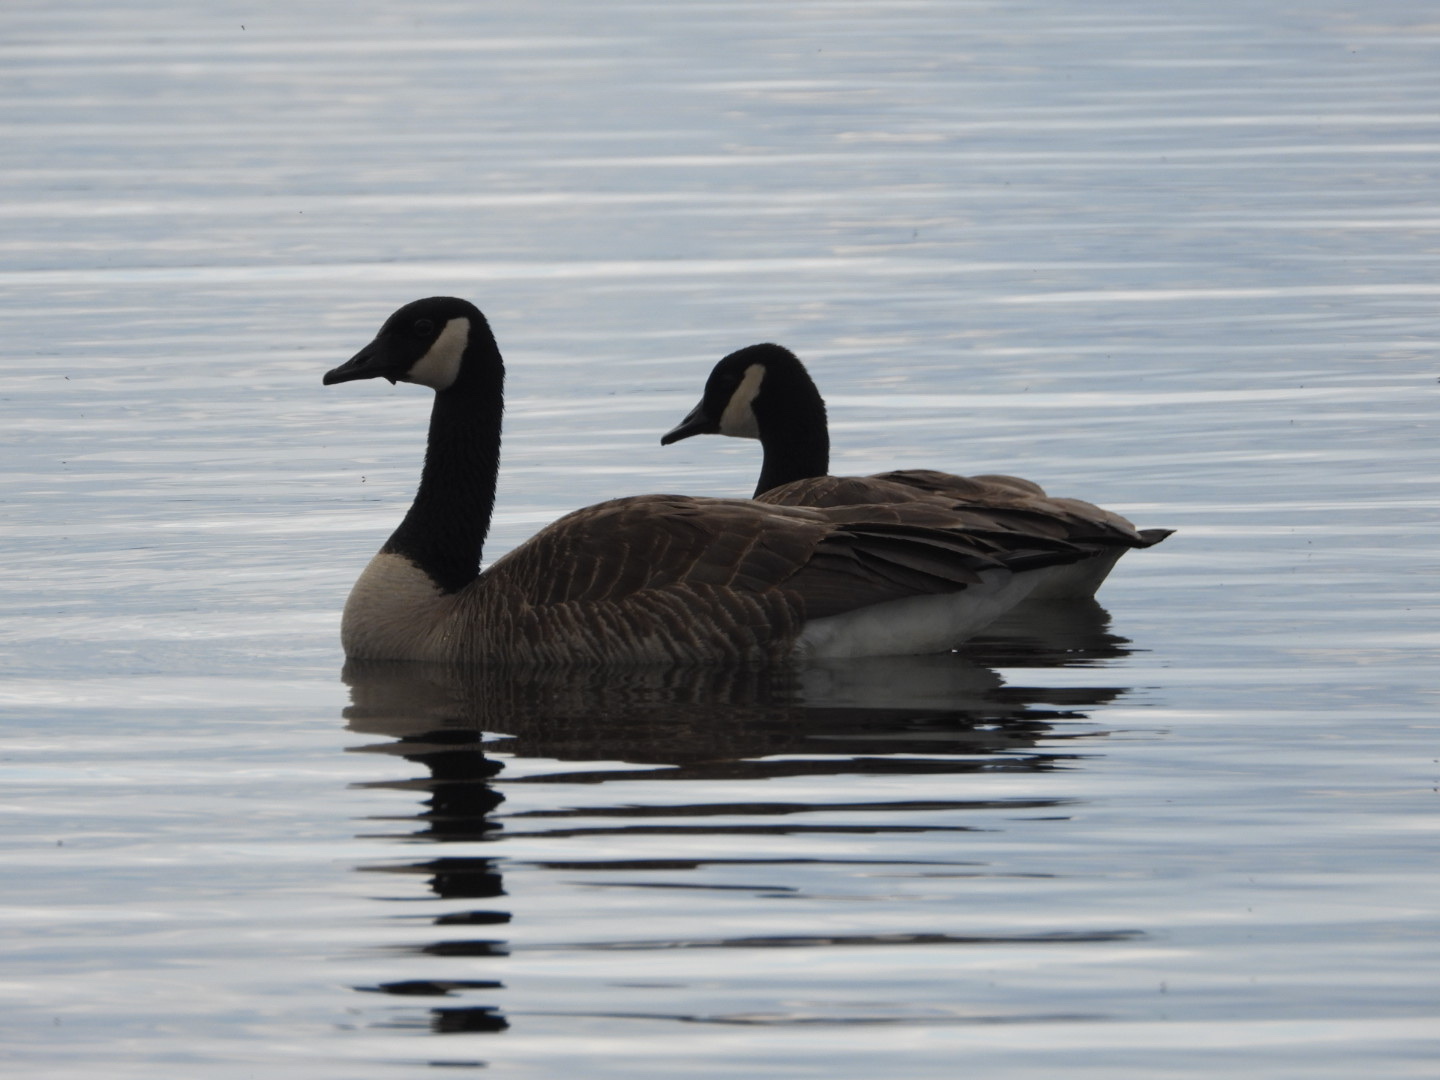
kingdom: Animalia
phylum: Chordata
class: Aves
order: Anseriformes
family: Anatidae
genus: Branta
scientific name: Branta canadensis
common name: Canada goose
